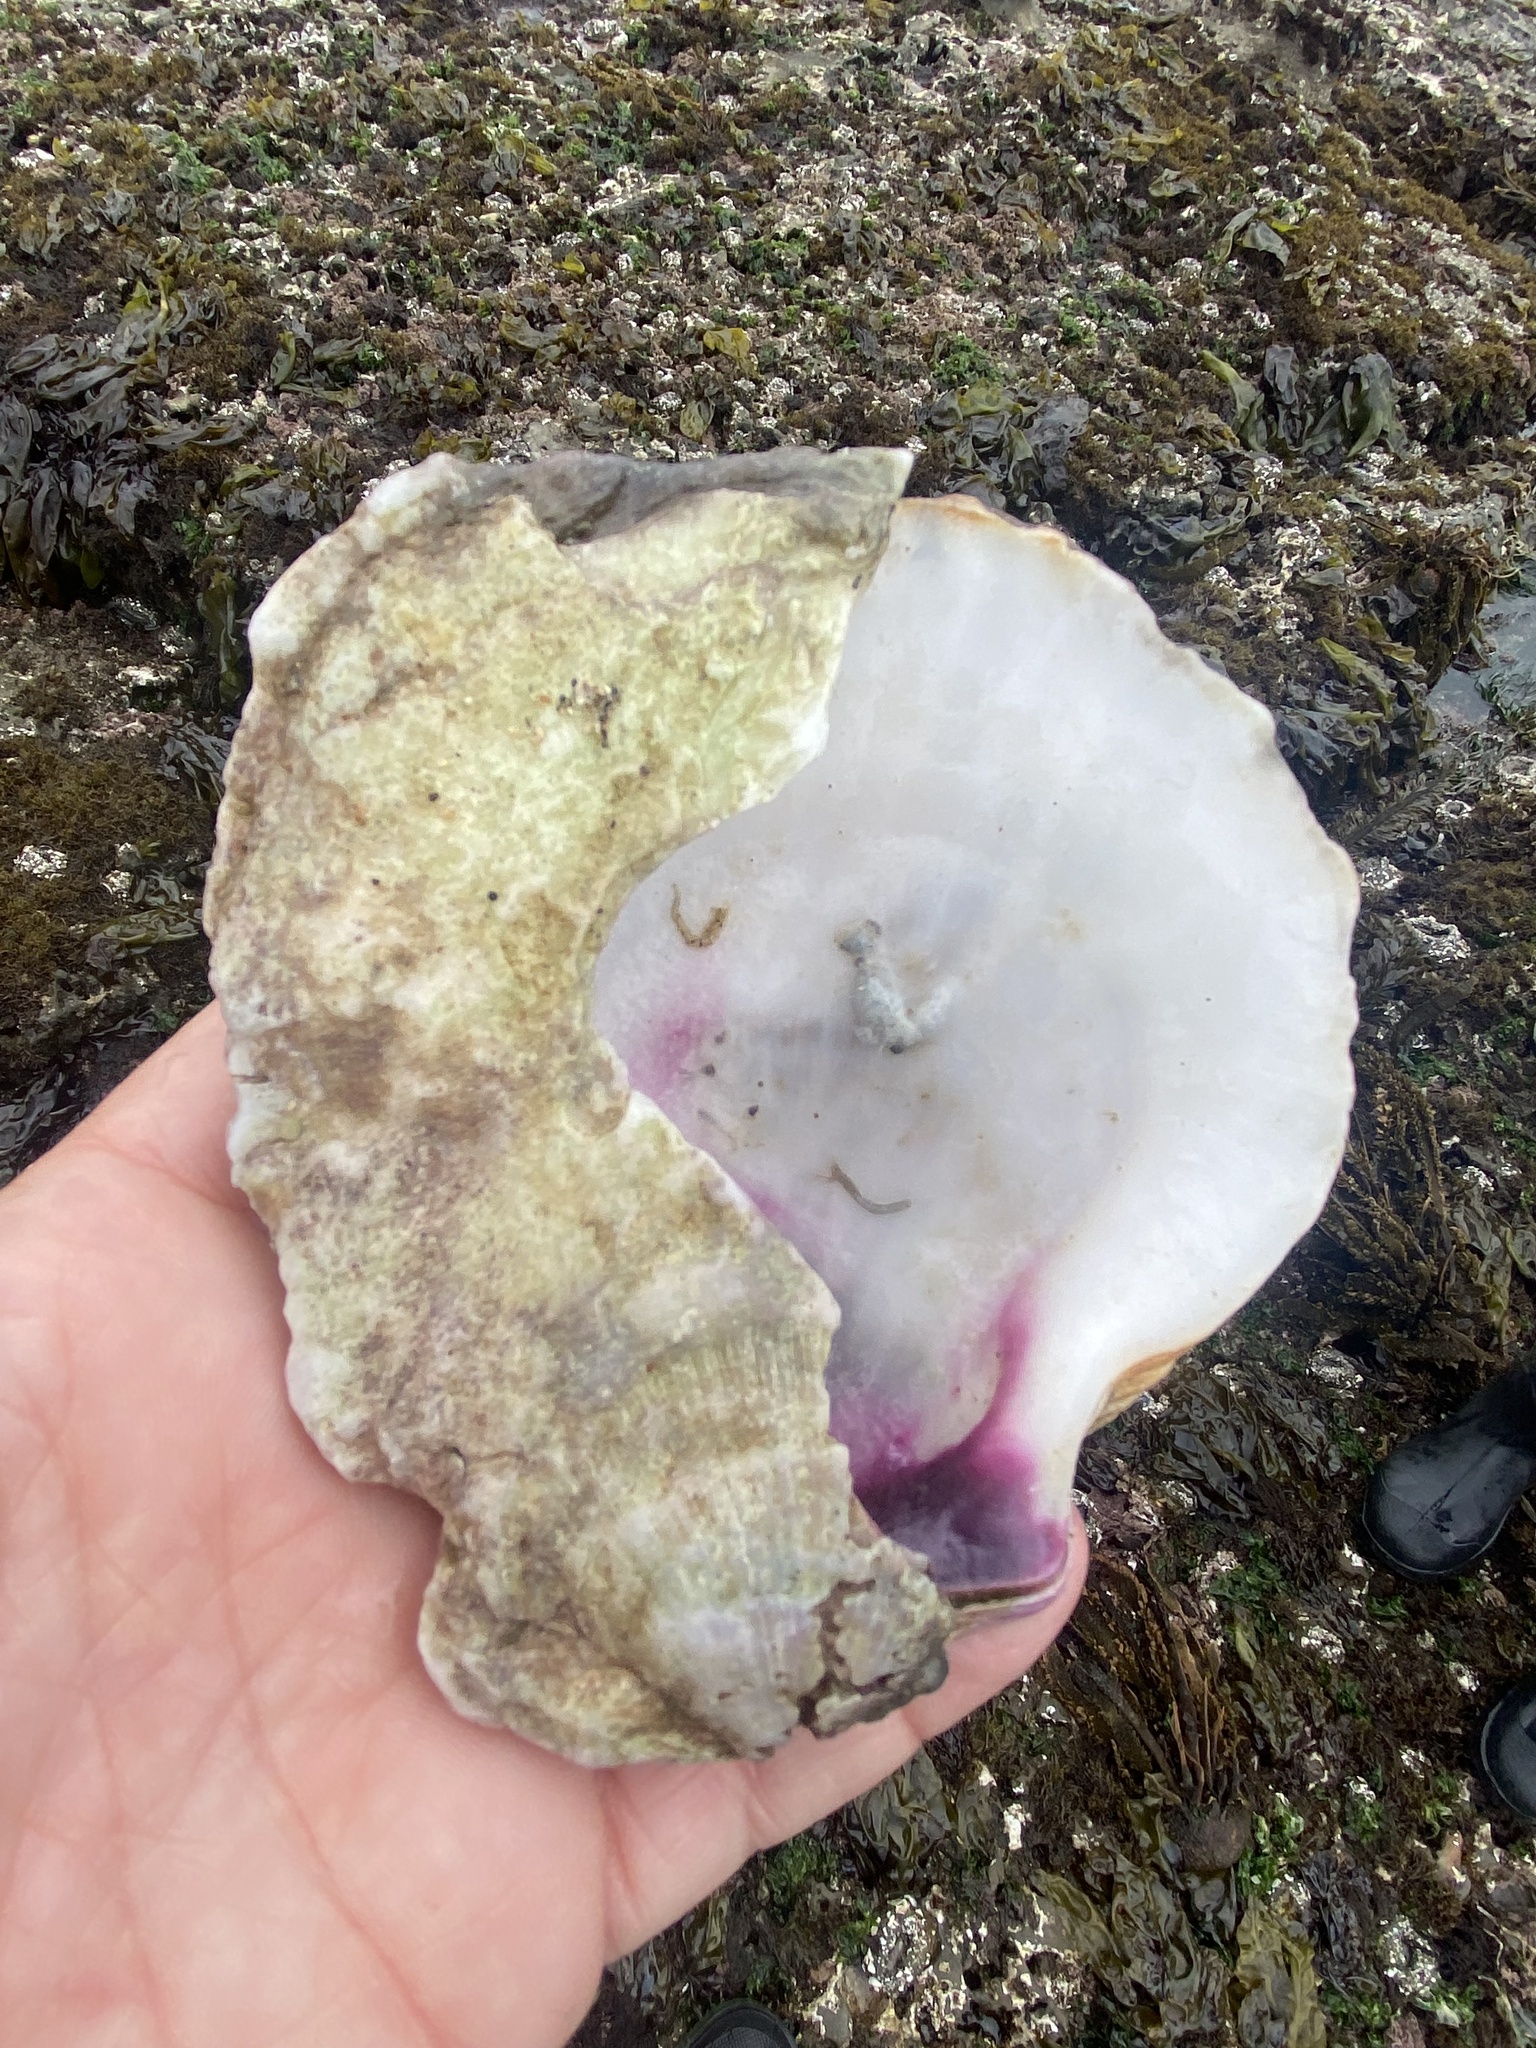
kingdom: Animalia
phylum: Mollusca
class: Bivalvia
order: Pectinida
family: Pectinidae
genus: Crassadoma
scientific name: Crassadoma gigantea
